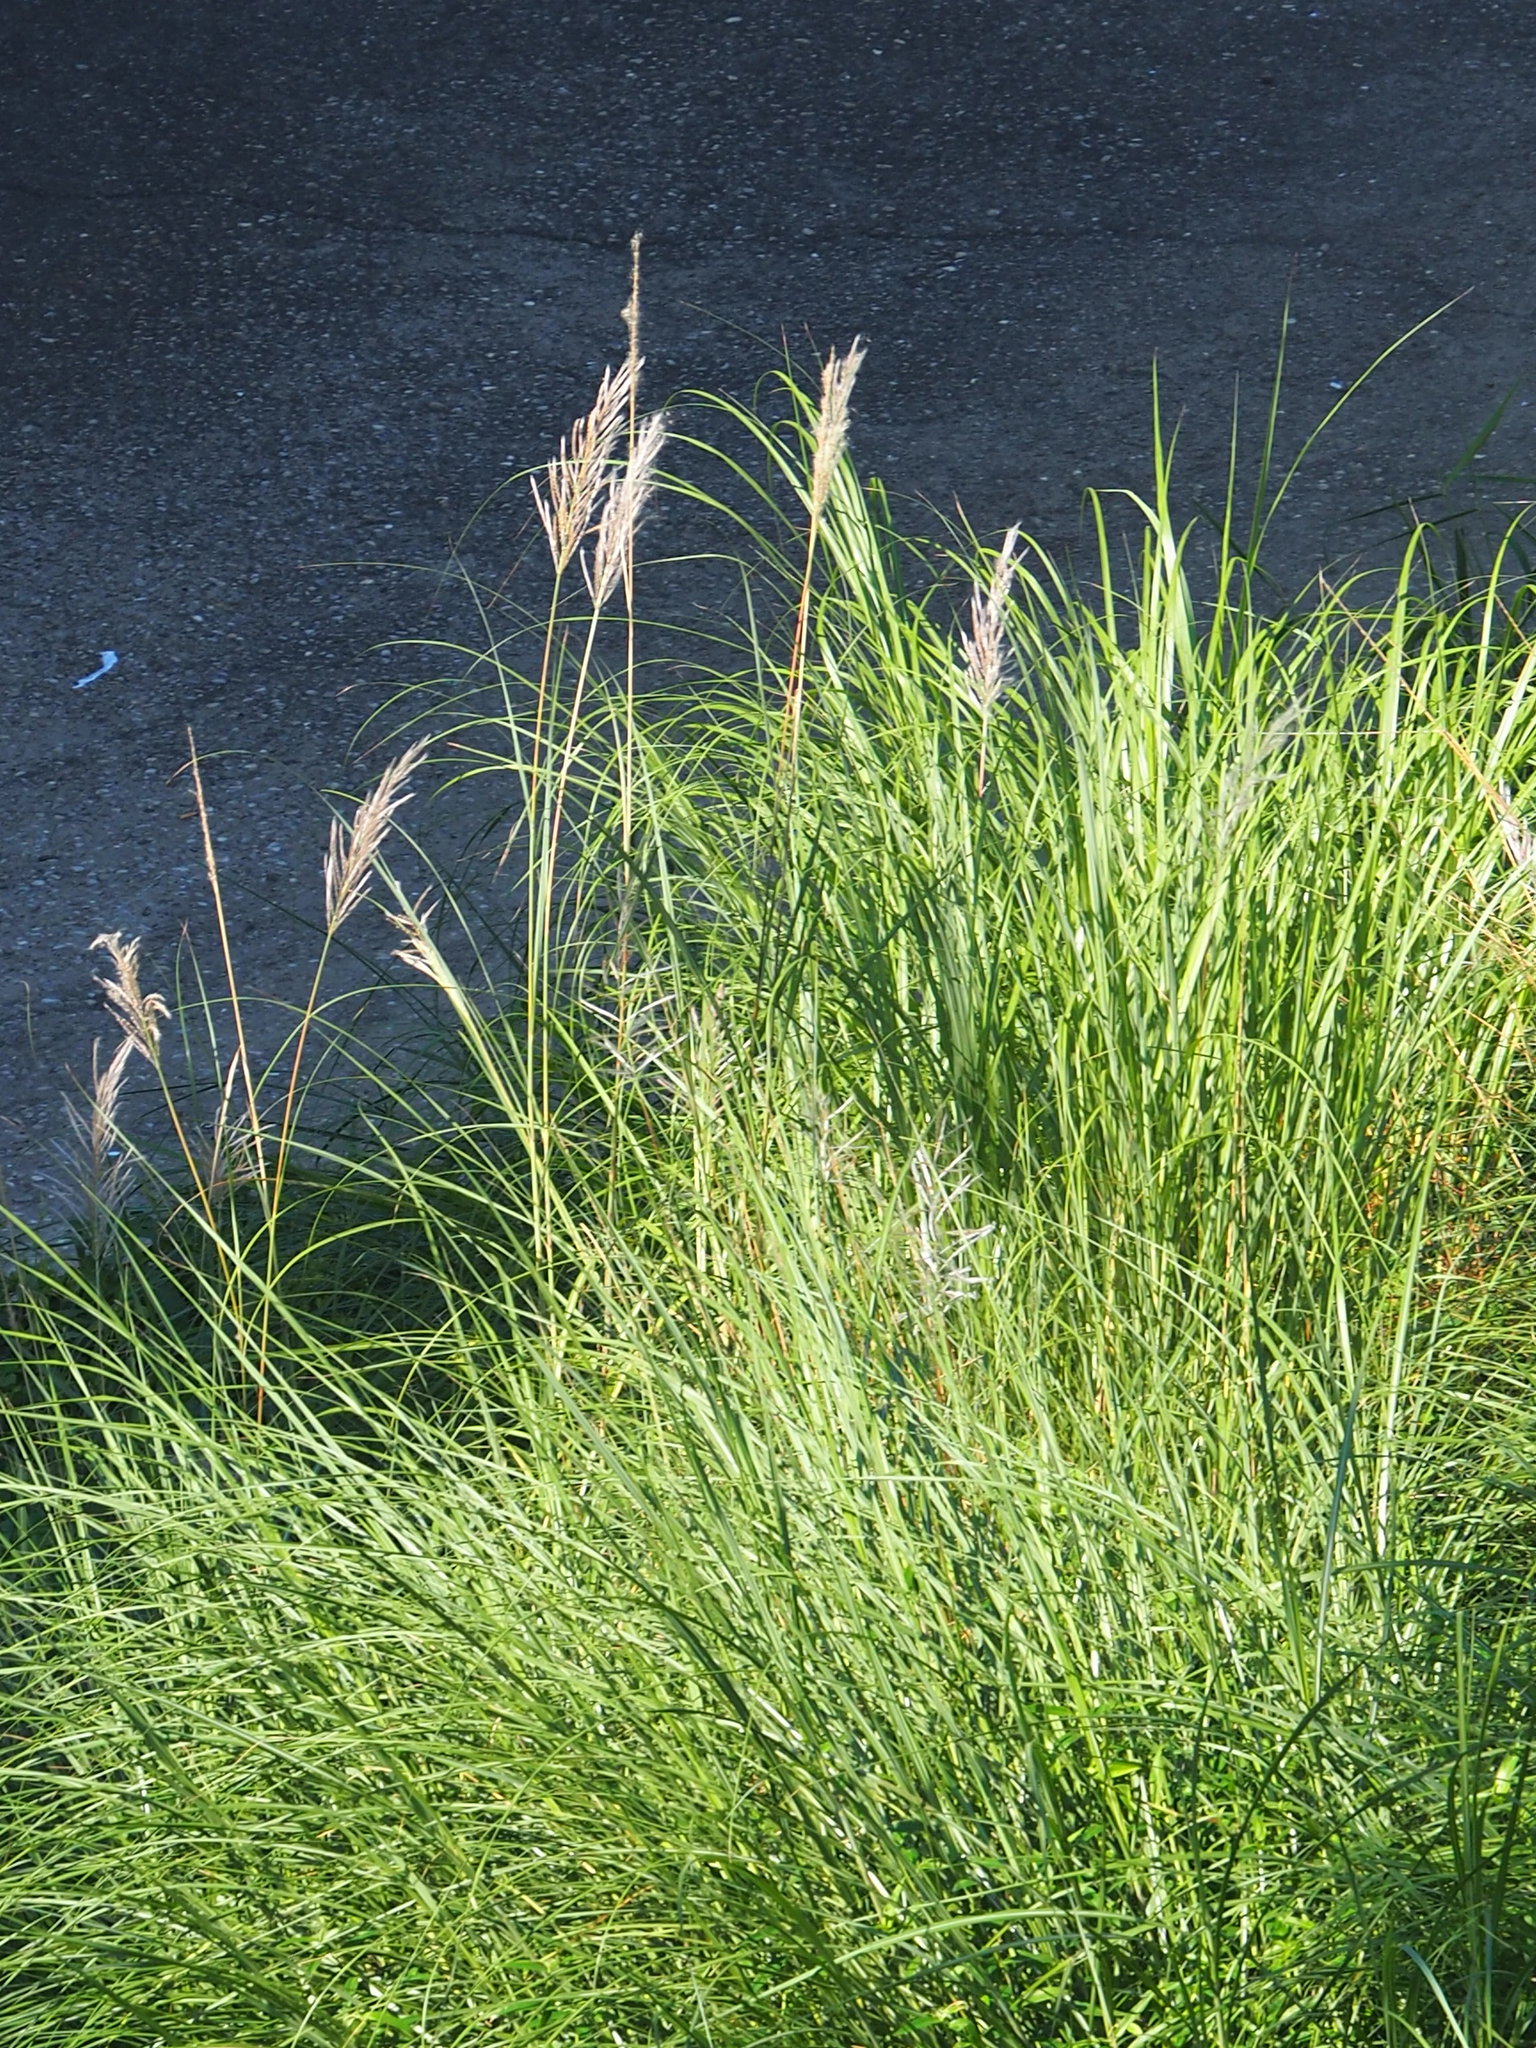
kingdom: Plantae
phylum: Tracheophyta
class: Liliopsida
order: Poales
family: Poaceae
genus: Saccharum
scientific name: Saccharum spontaneum
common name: Wild sugarcane
